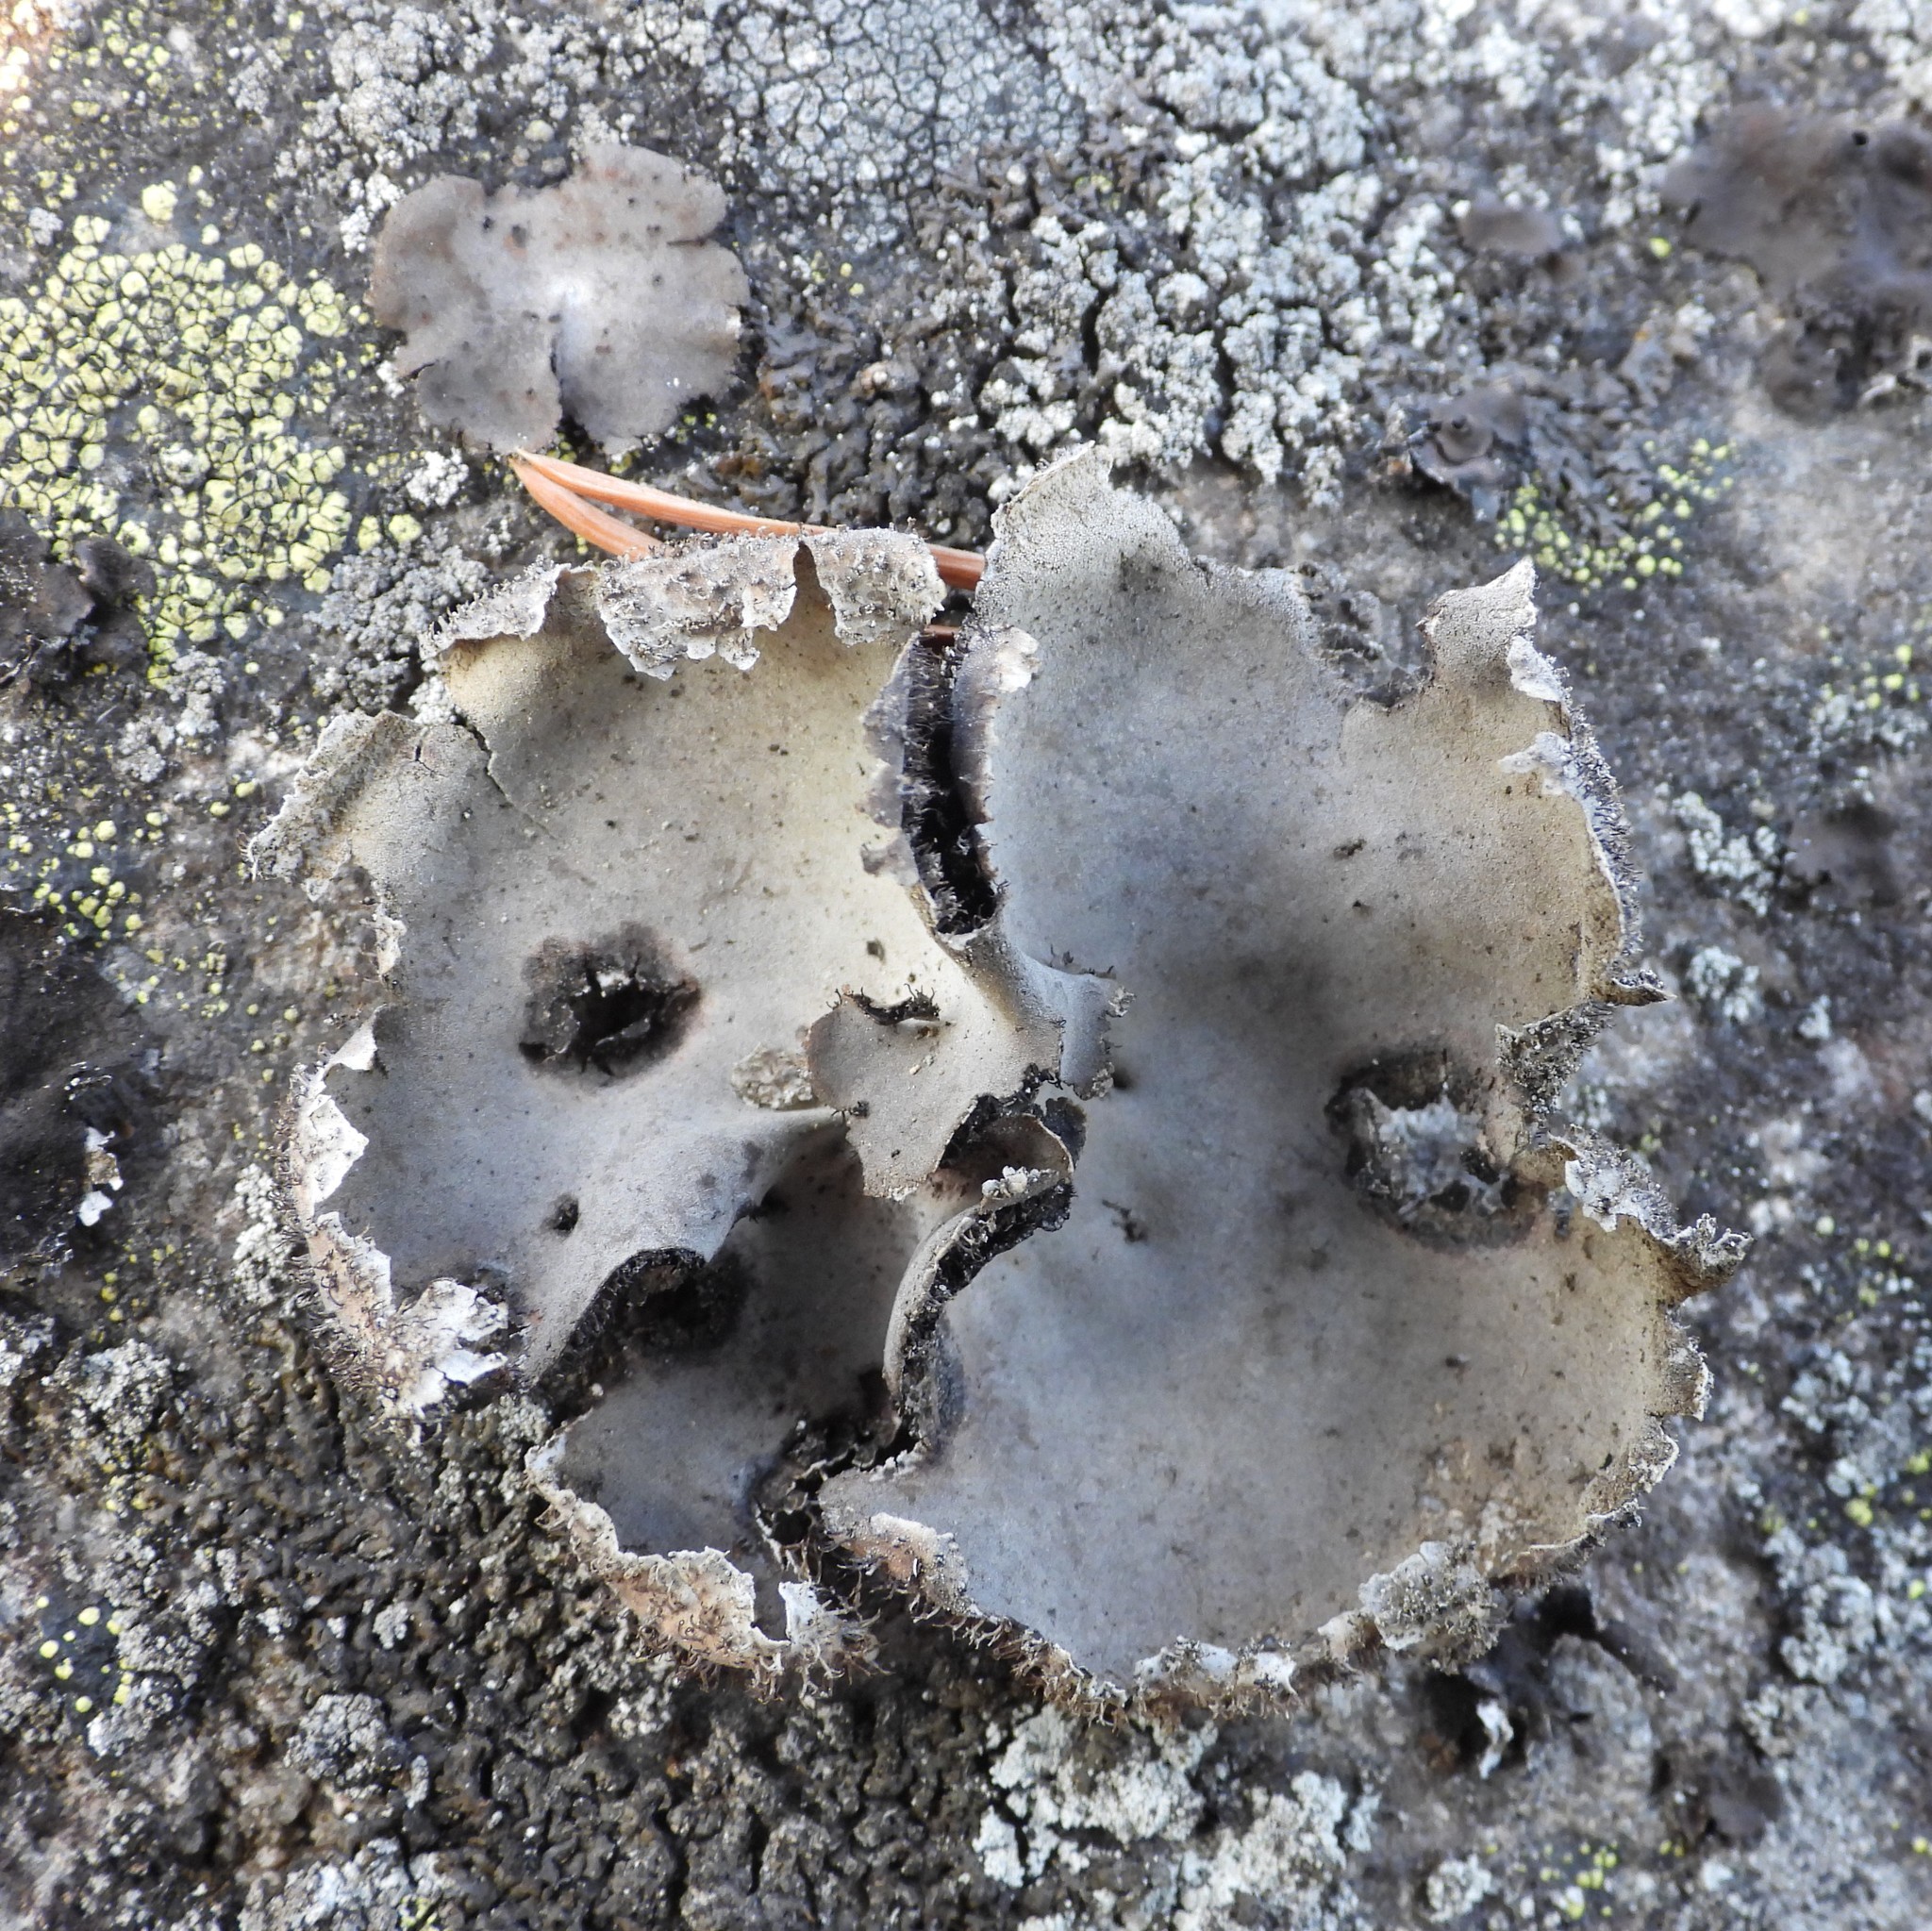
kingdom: Fungi
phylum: Ascomycota
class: Lecanoromycetes
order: Umbilicariales
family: Umbilicariaceae
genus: Umbilicaria
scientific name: Umbilicaria hirsuta
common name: Granulating rocktripe lichen
